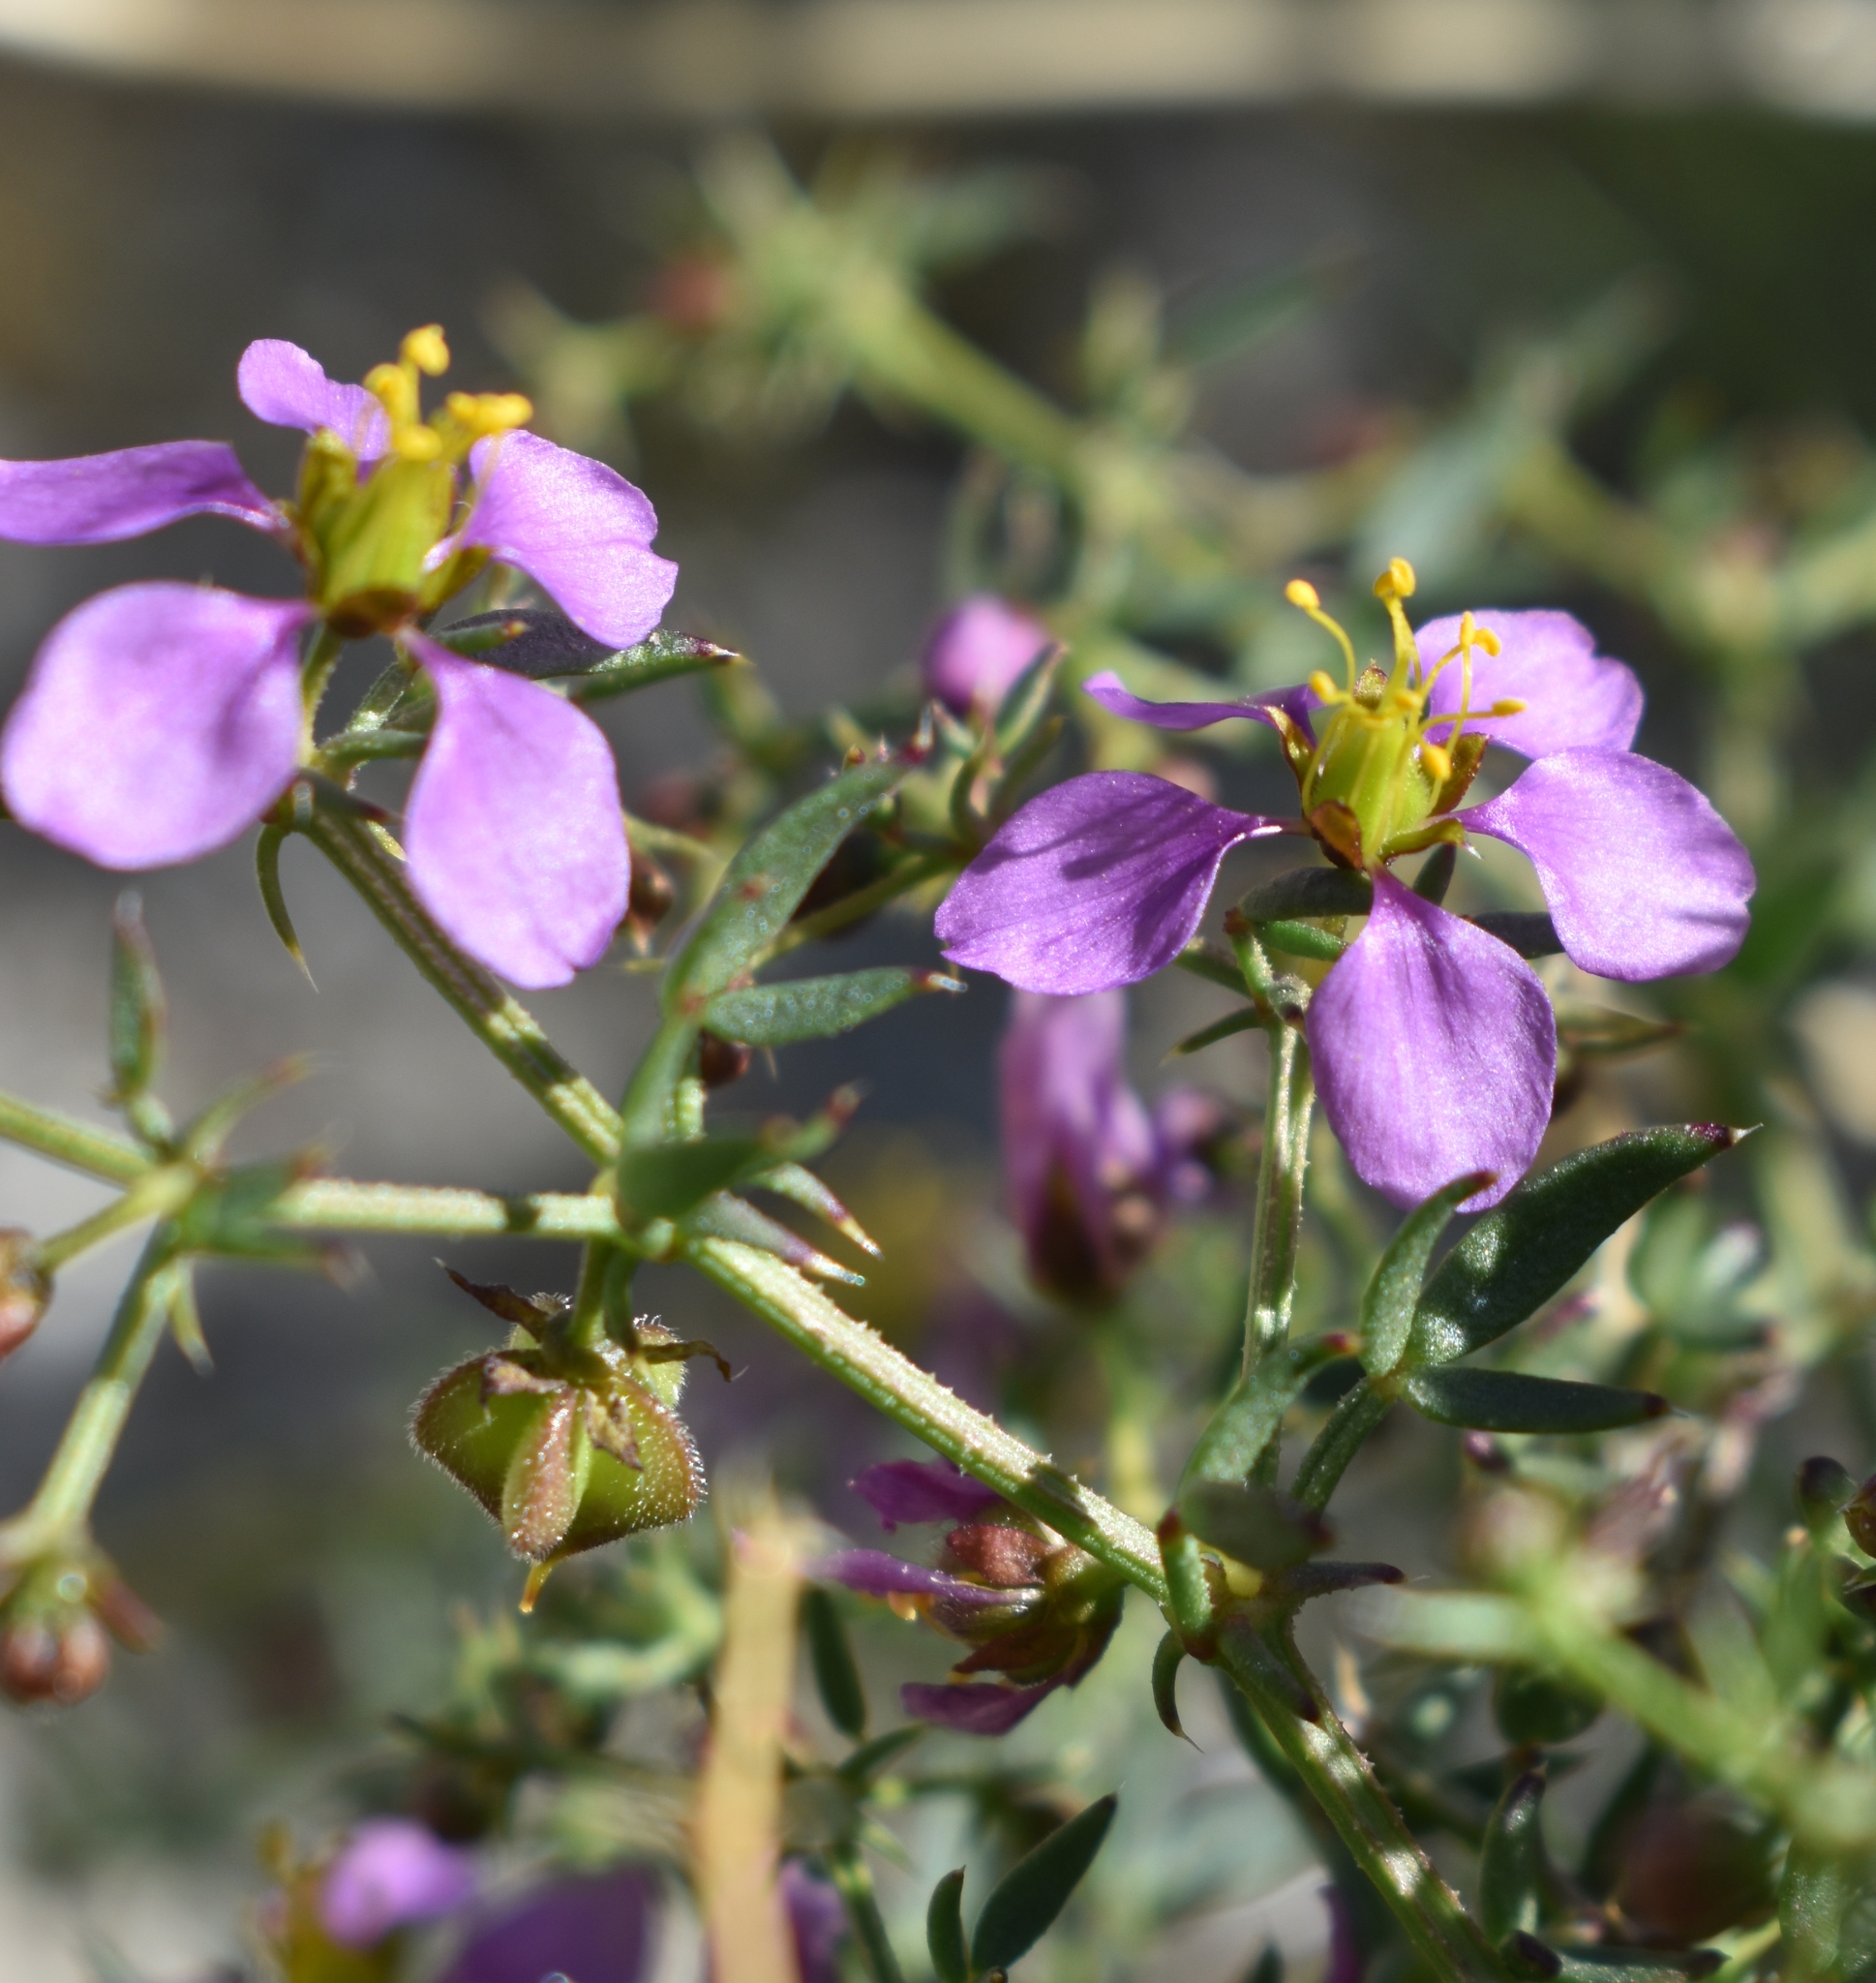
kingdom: Plantae
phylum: Tracheophyta
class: Magnoliopsida
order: Zygophyllales
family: Zygophyllaceae
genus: Fagonia
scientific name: Fagonia laevis
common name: California fagonbush
